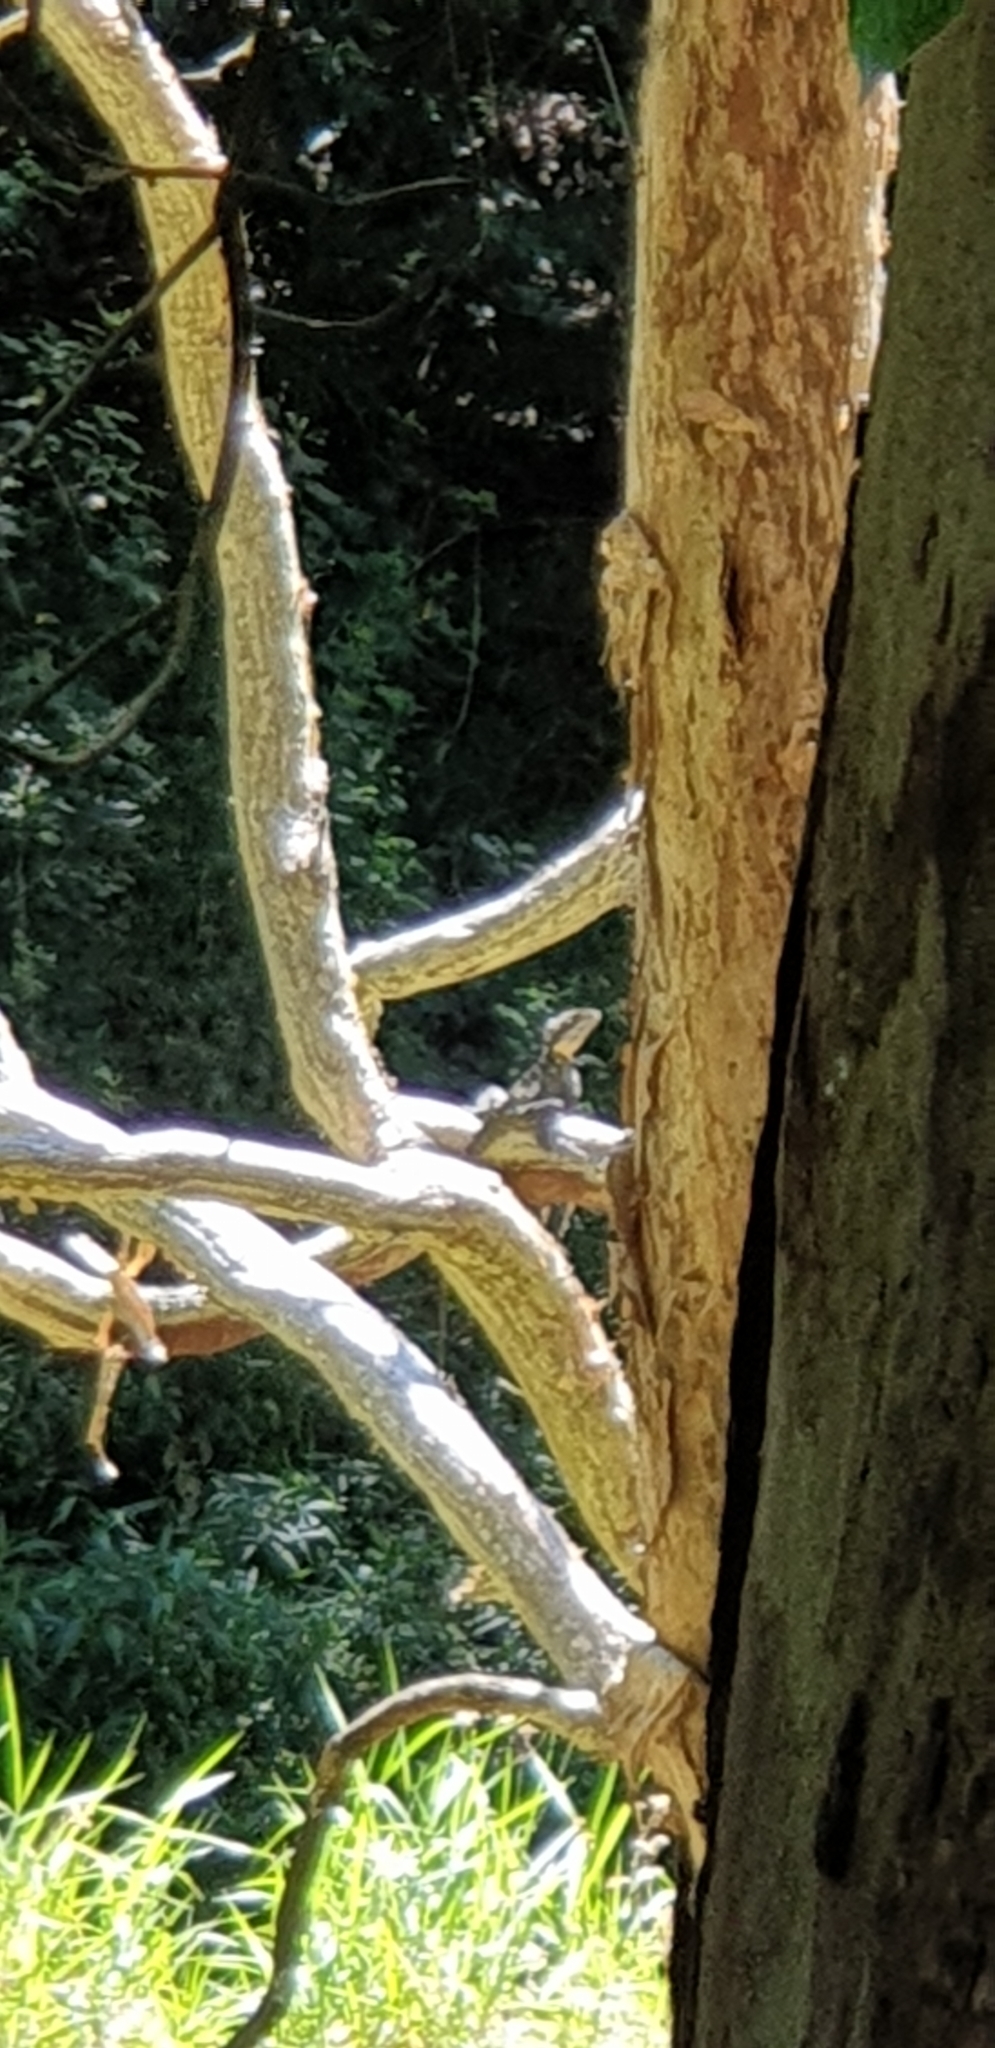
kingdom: Animalia
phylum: Chordata
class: Squamata
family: Agamidae
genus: Intellagama
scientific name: Intellagama lesueurii
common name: Eastern water dragon
